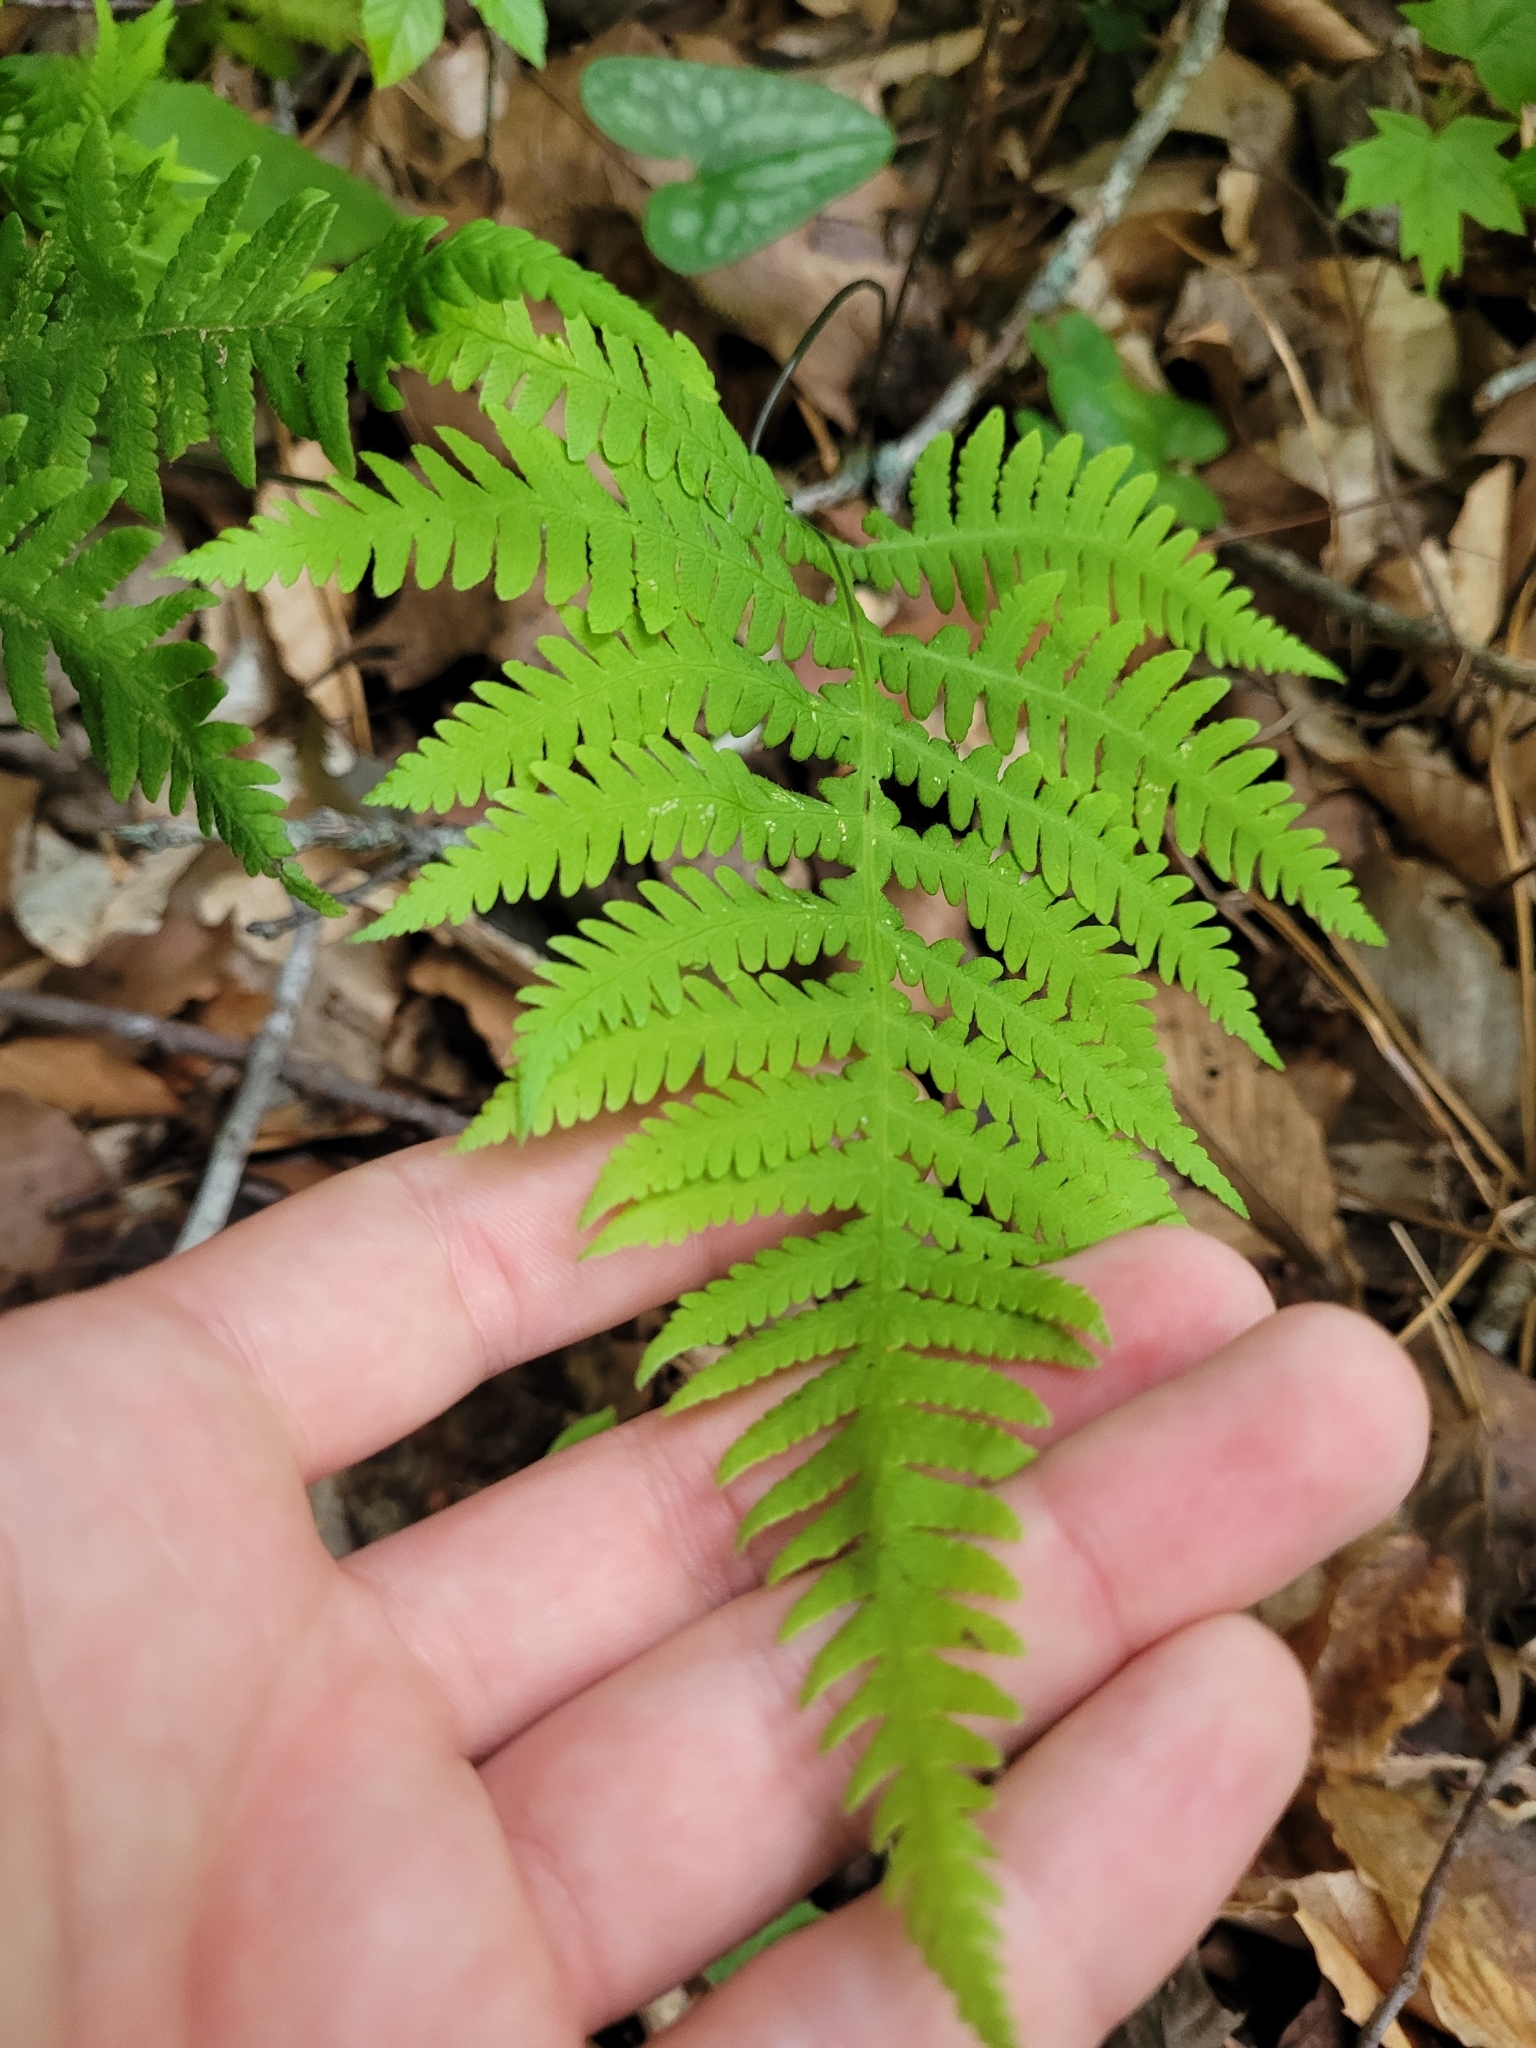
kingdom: Plantae
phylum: Tracheophyta
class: Polypodiopsida
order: Polypodiales
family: Thelypteridaceae
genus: Phegopteris
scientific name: Phegopteris hexagonoptera
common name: Broad beech fern
